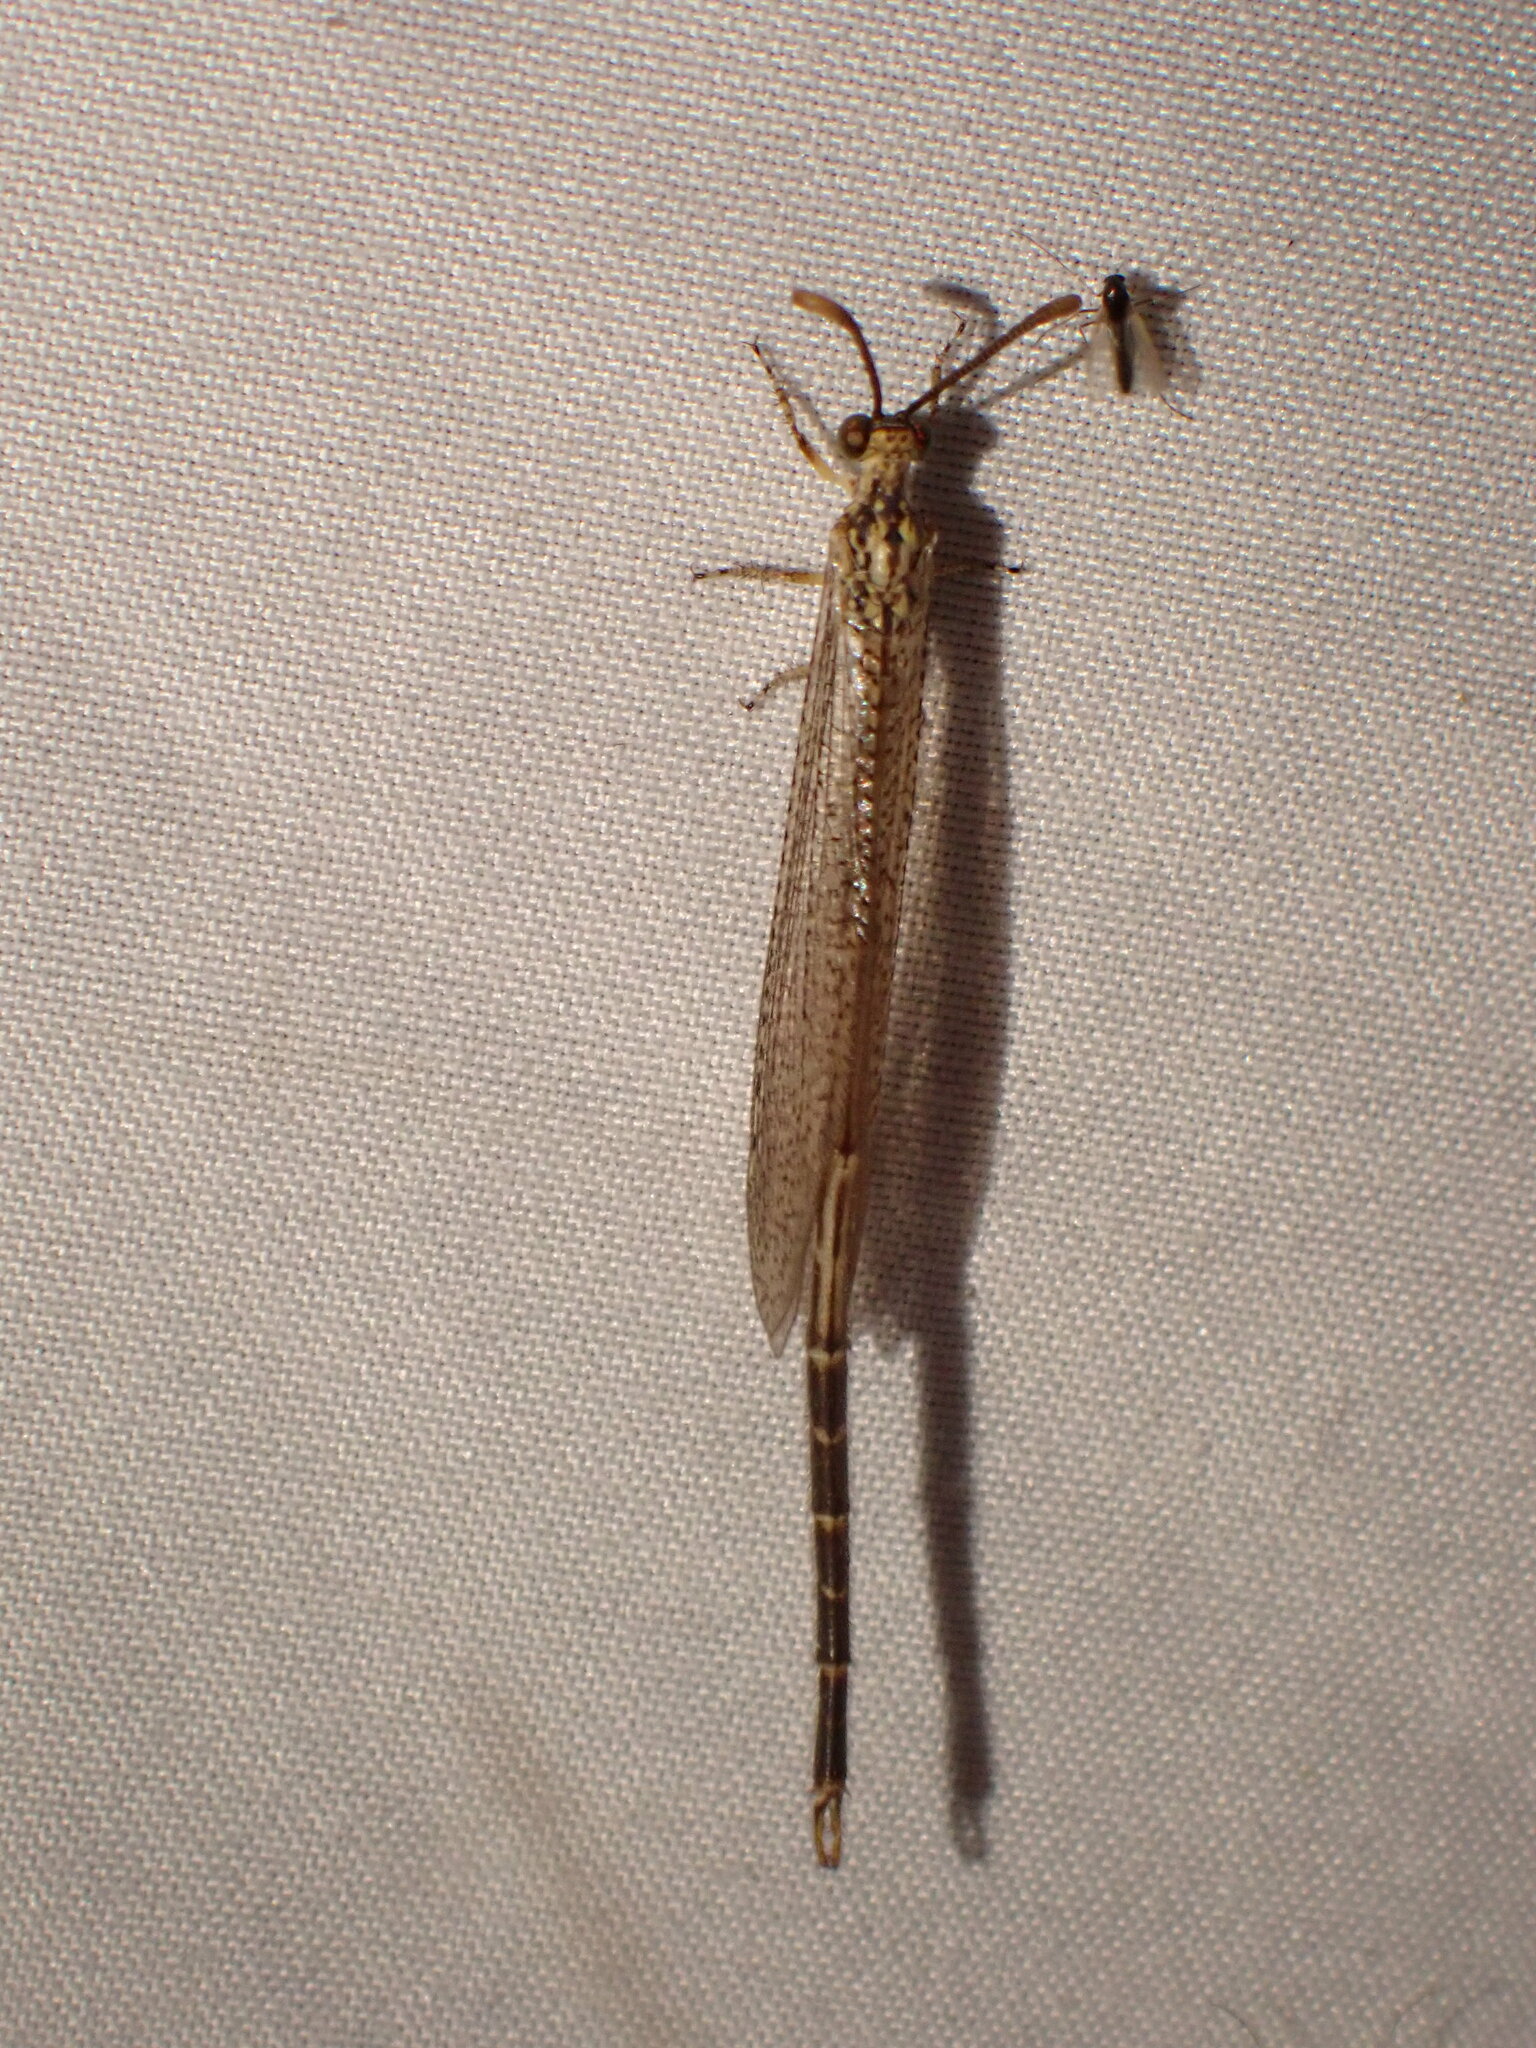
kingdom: Animalia
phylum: Arthropoda
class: Insecta
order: Neuroptera
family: Myrmeleontidae
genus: Brachynemurus
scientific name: Brachynemurus abdominalis
